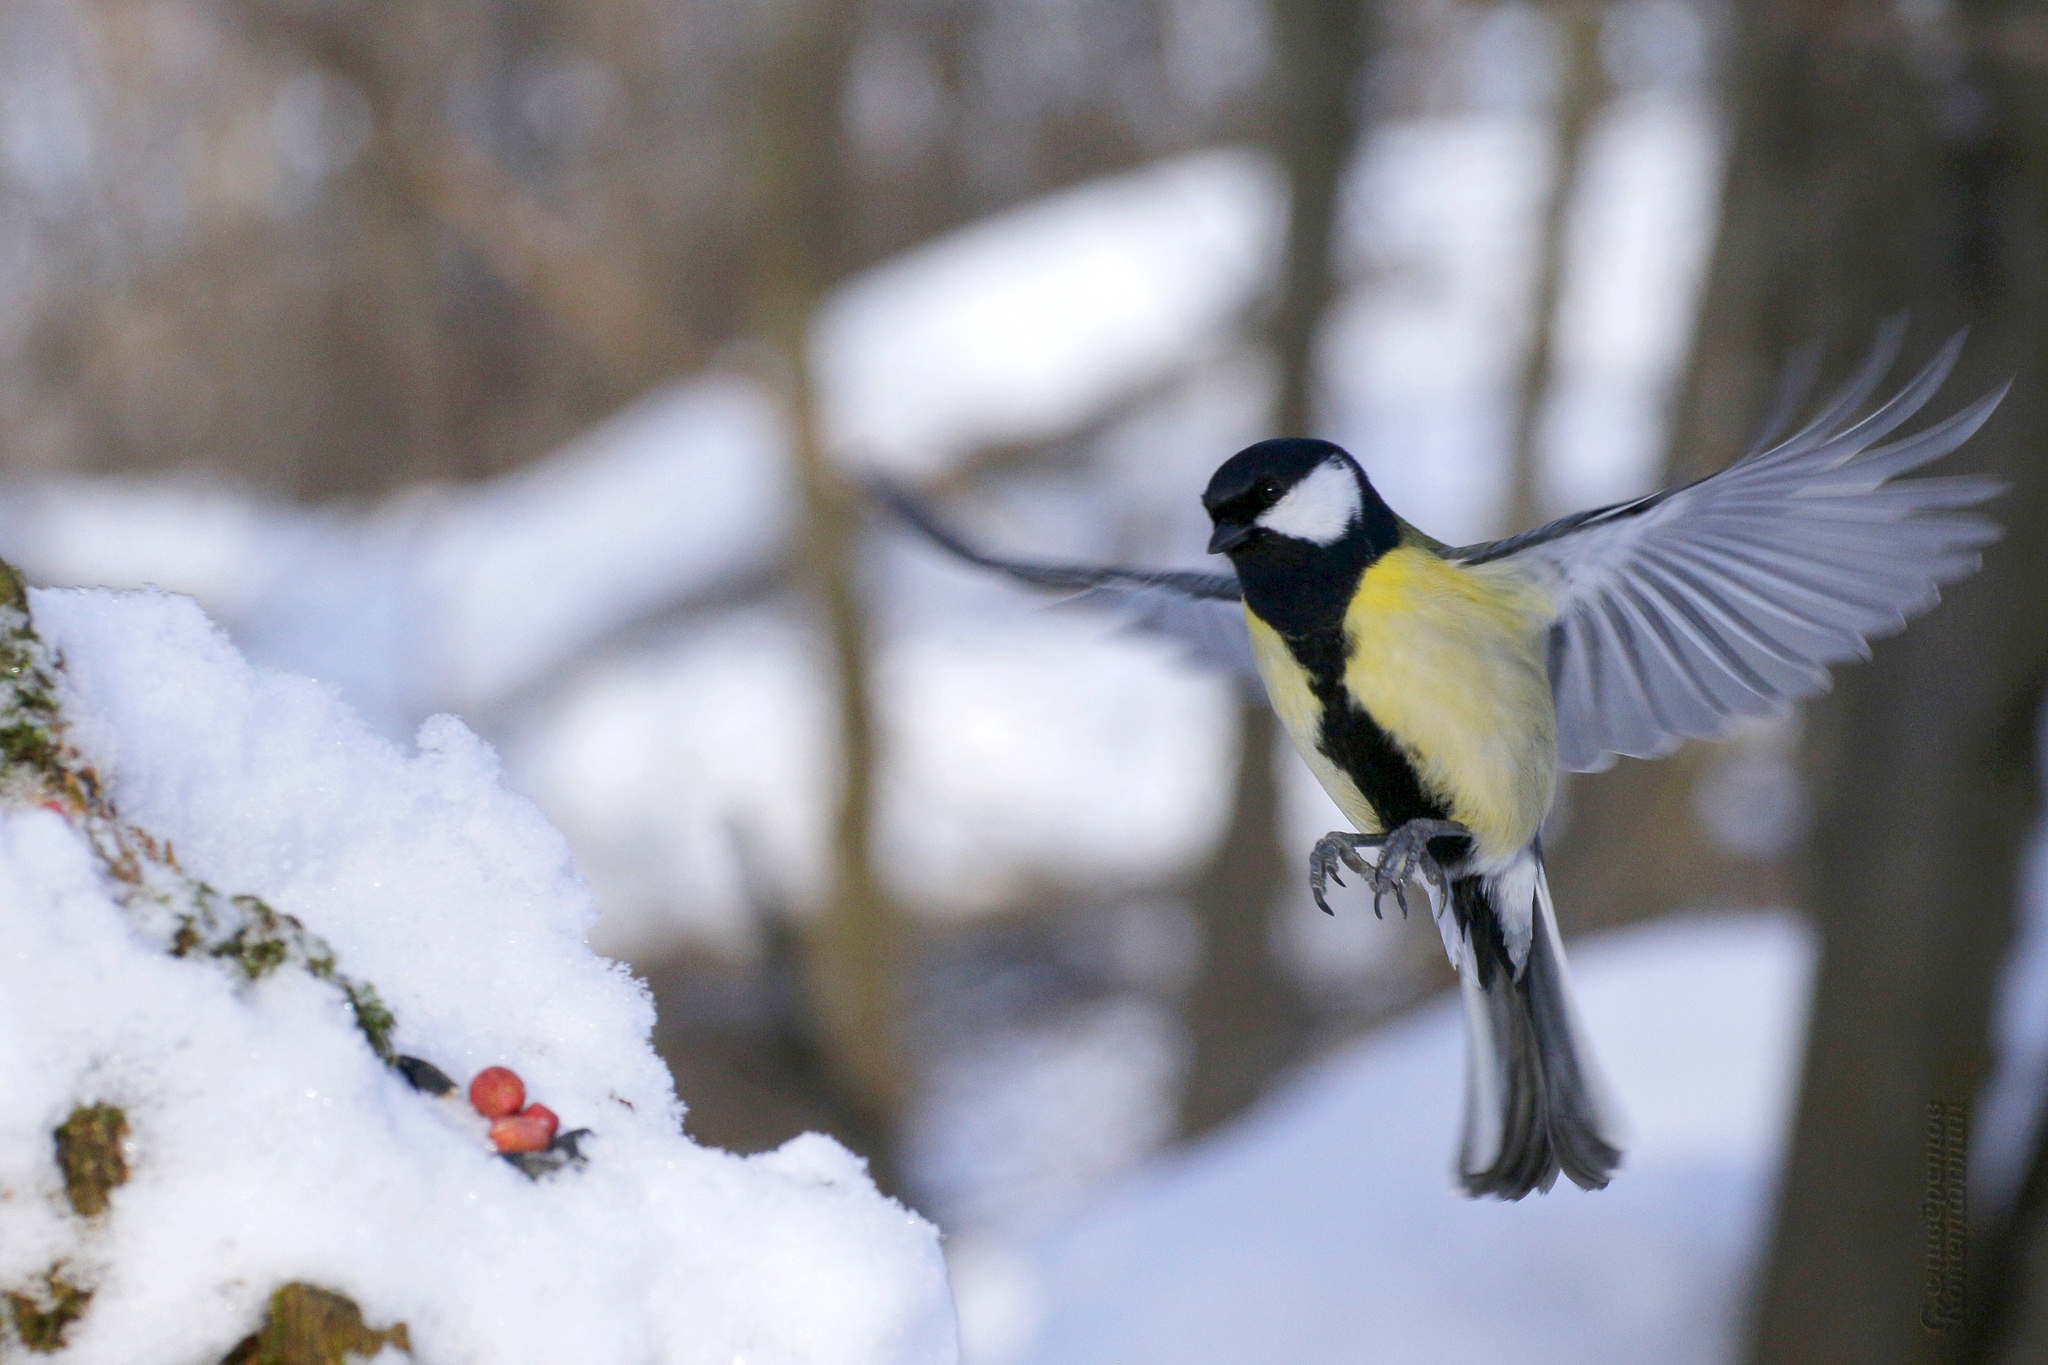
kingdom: Animalia
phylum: Chordata
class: Aves
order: Passeriformes
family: Paridae
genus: Parus
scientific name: Parus major
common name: Great tit
